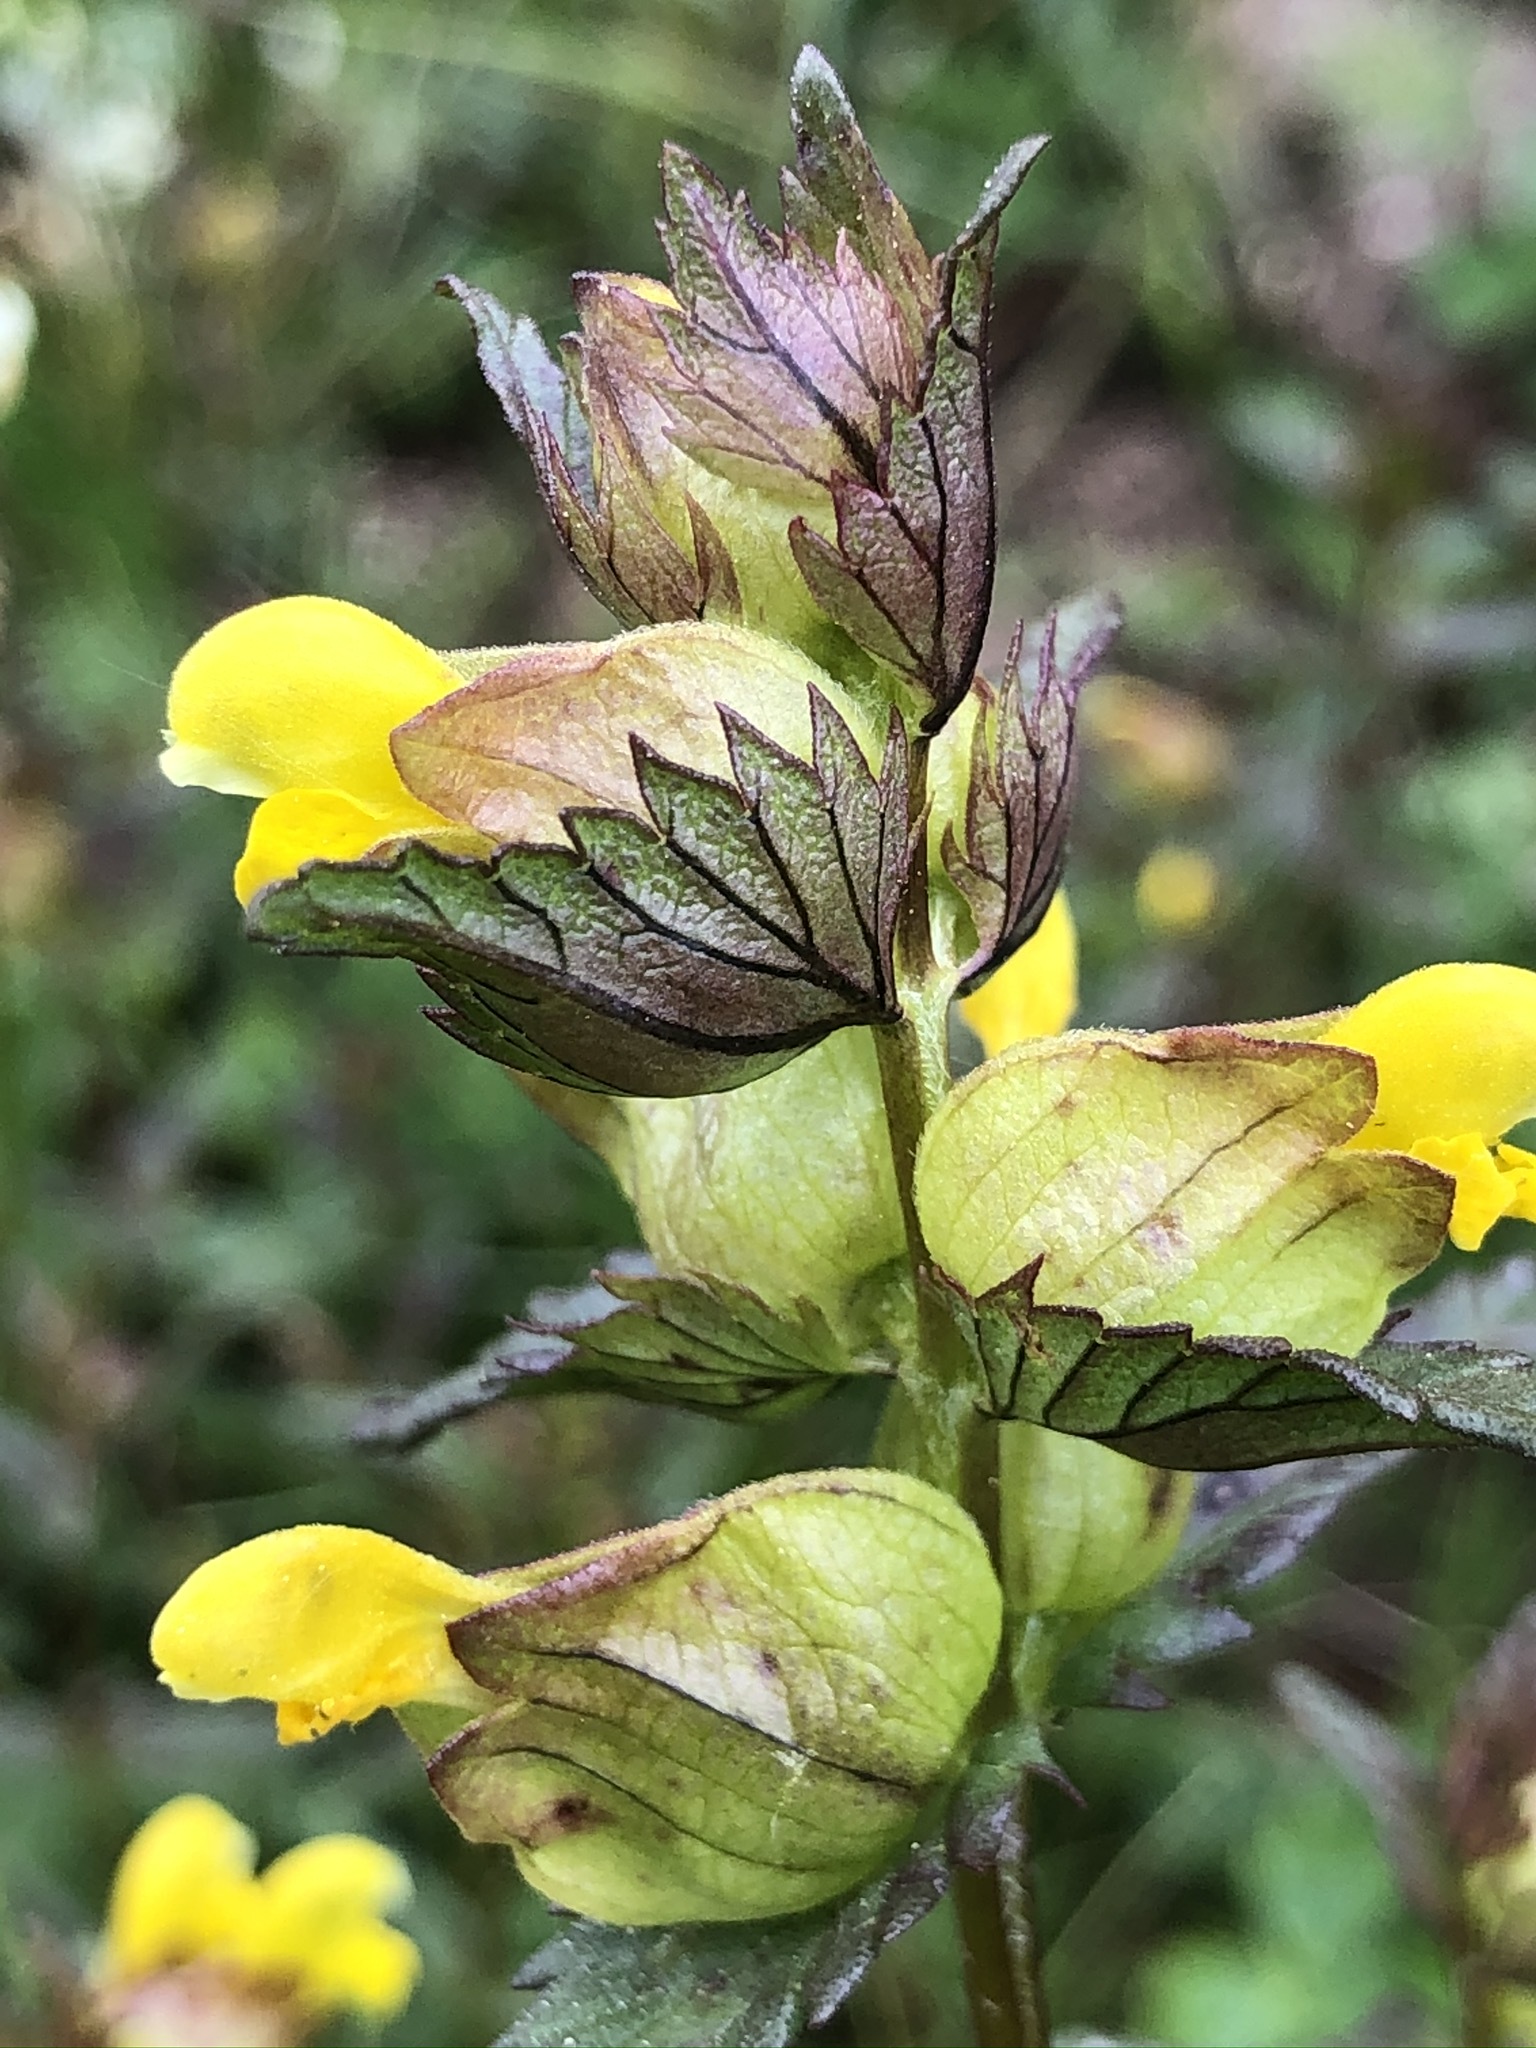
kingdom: Plantae
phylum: Tracheophyta
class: Magnoliopsida
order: Lamiales
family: Orobanchaceae
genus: Rhinanthus
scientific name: Rhinanthus minor
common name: Yellow-rattle
